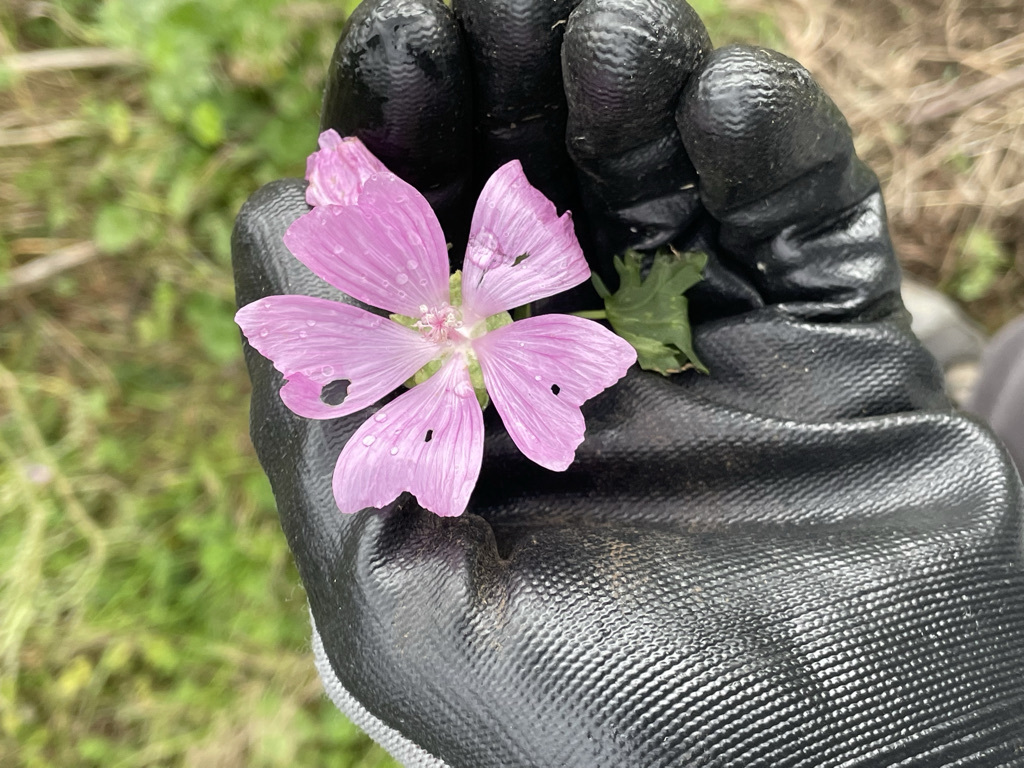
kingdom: Plantae
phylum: Tracheophyta
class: Magnoliopsida
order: Malvales
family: Malvaceae
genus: Malva
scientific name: Malva moschata
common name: Musk mallow
